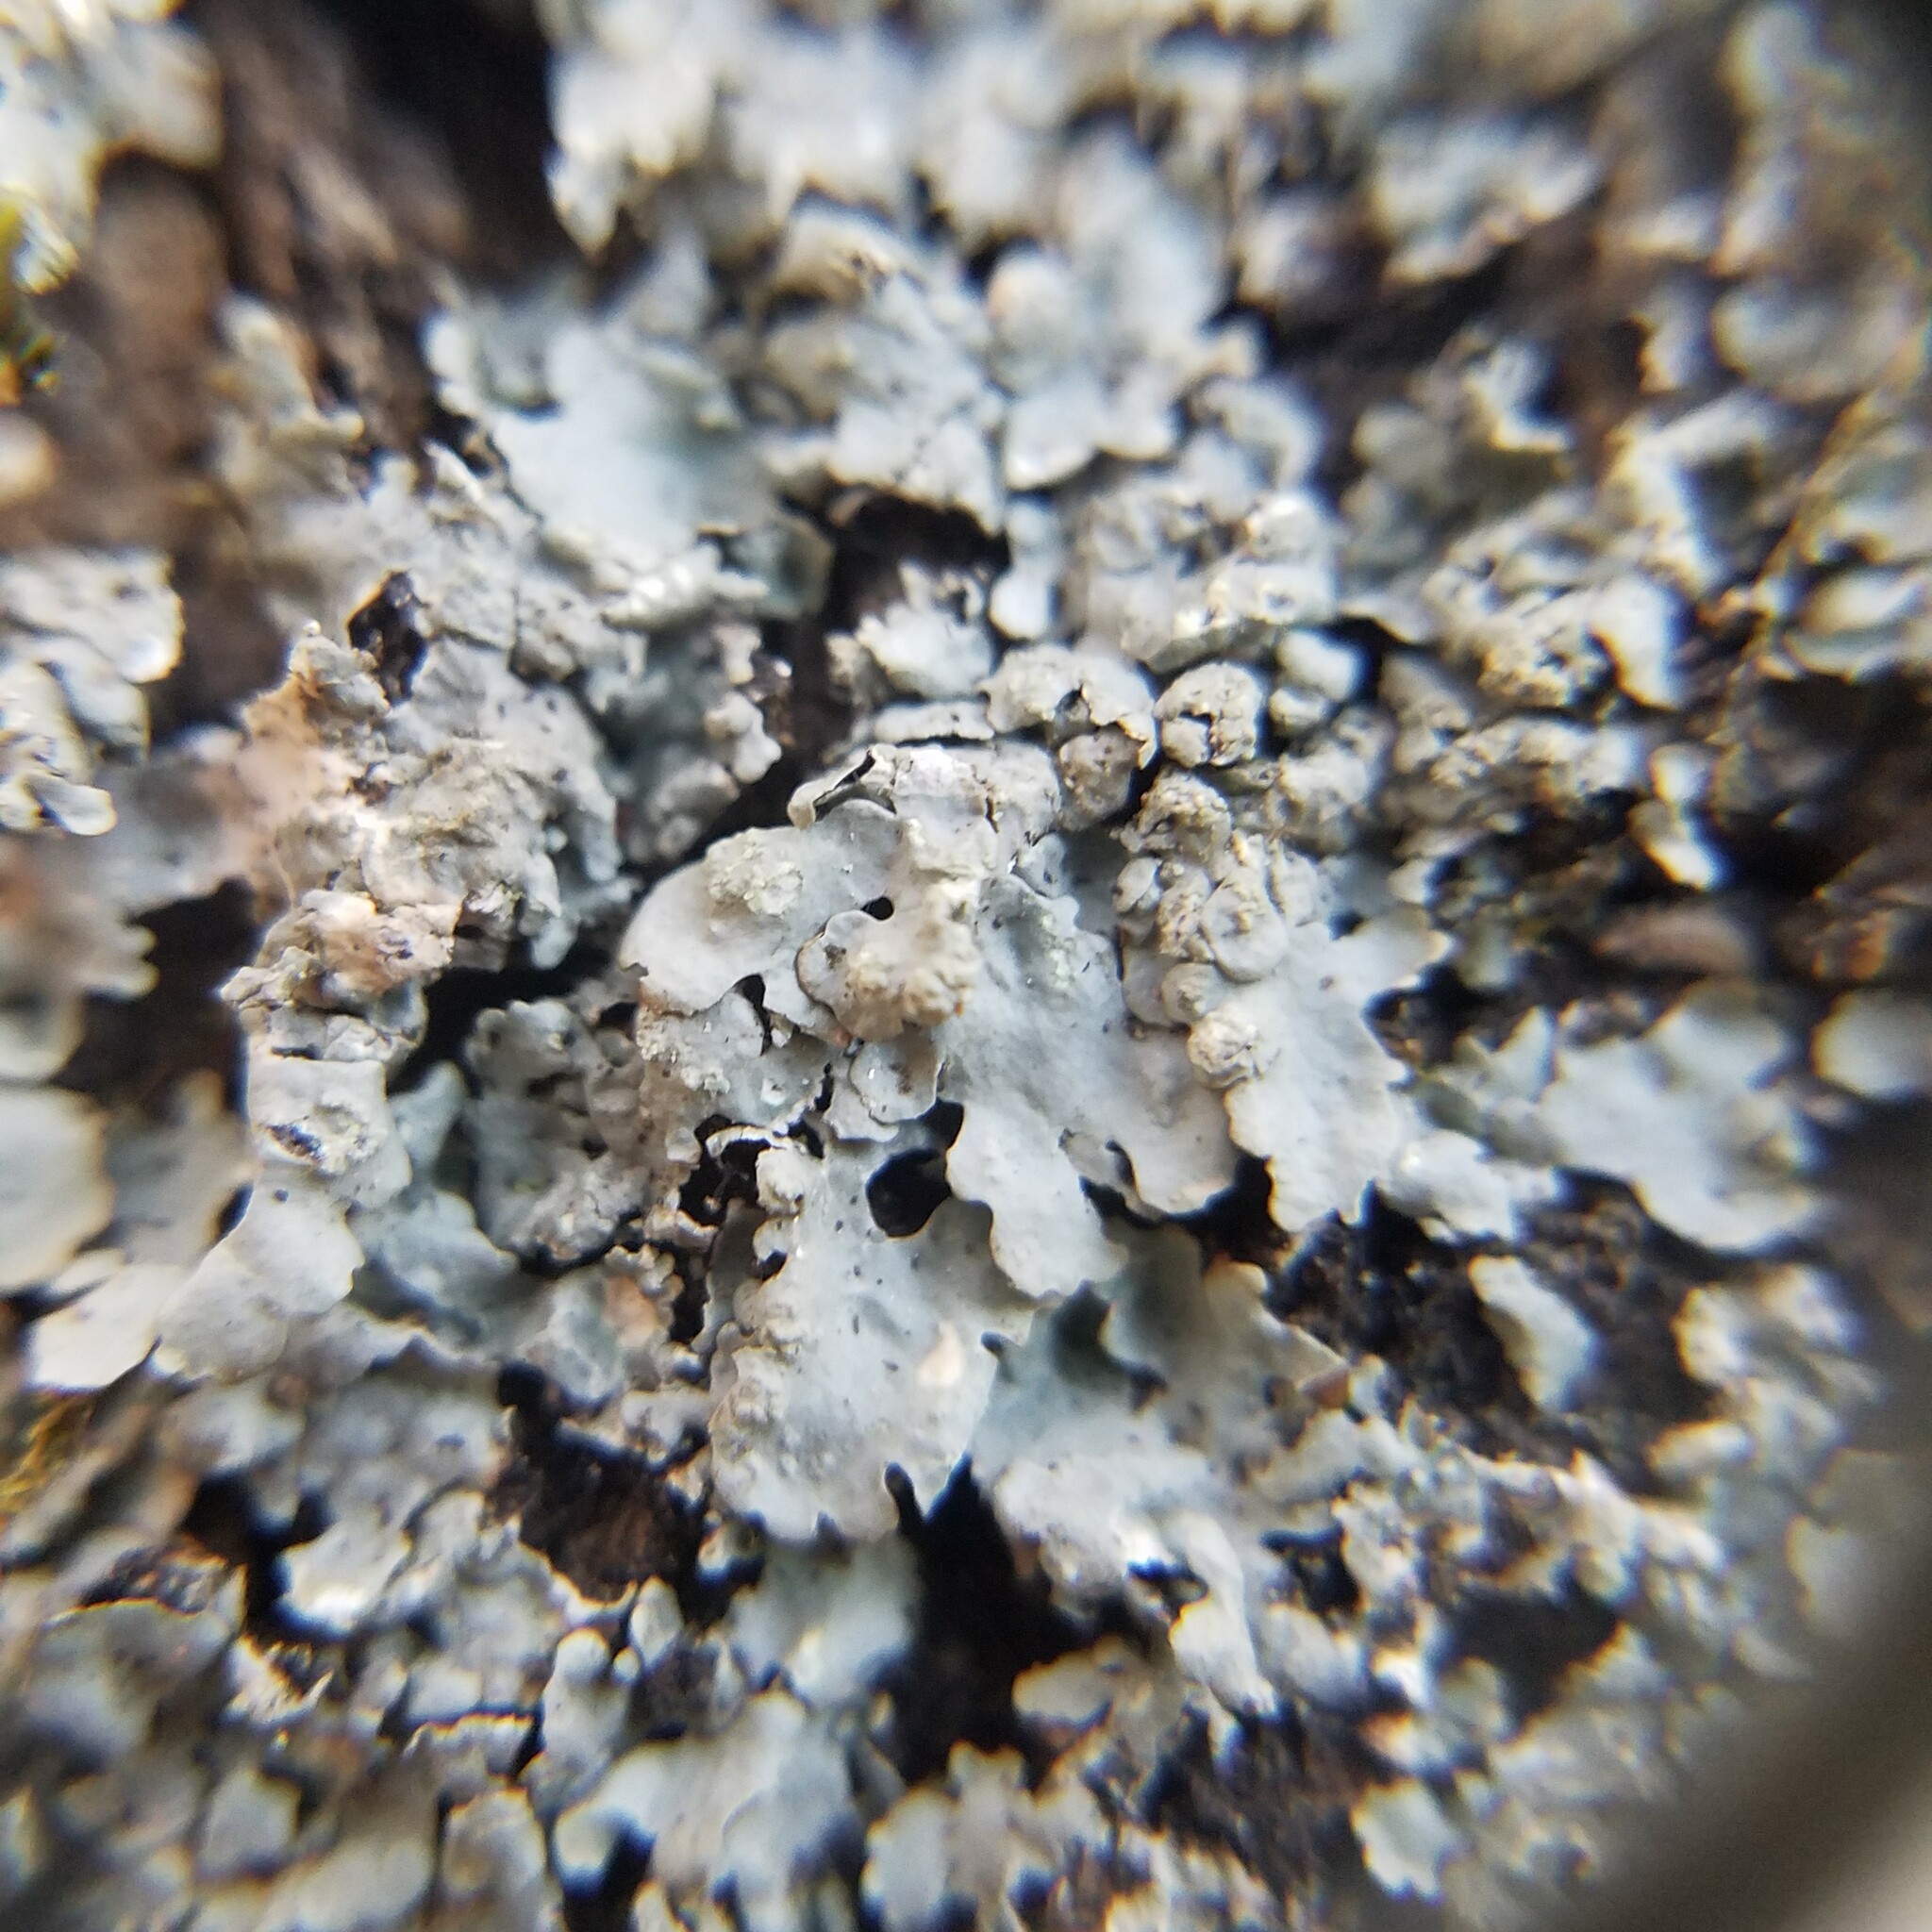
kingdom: Fungi
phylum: Ascomycota
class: Lecanoromycetes
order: Lecanorales
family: Parmeliaceae
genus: Myelochroa
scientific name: Myelochroa aurulenta
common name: Powdery axil-bristle lichen
